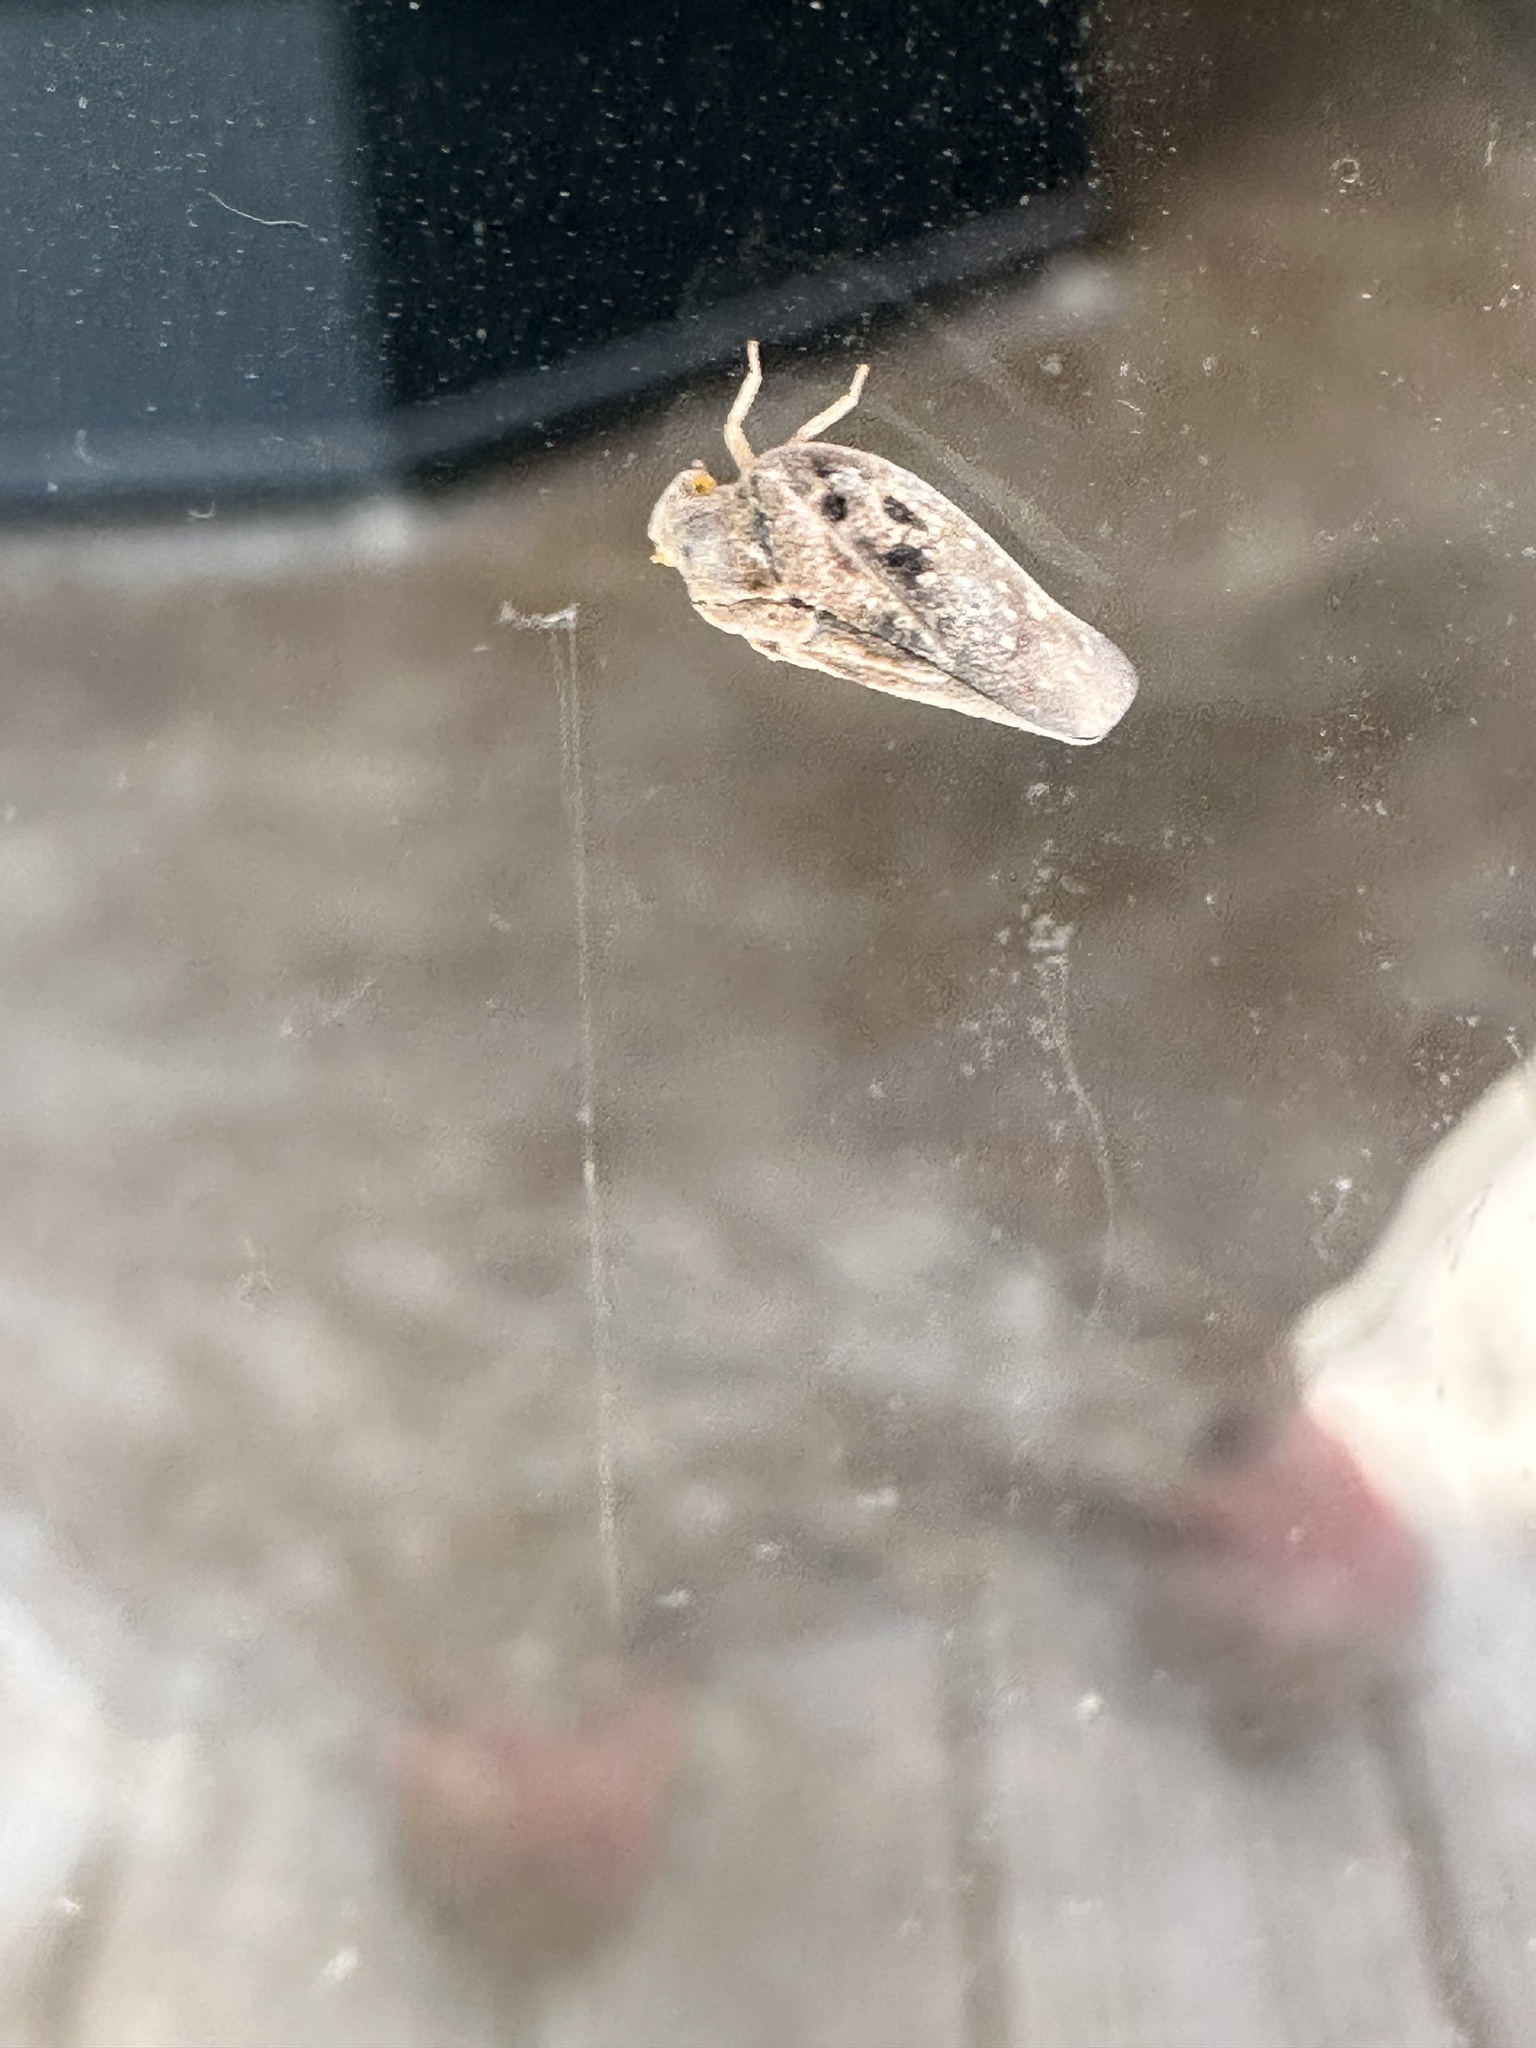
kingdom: Animalia
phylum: Arthropoda
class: Insecta
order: Hemiptera
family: Flatidae
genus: Metcalfa
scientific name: Metcalfa pruinosa
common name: Citrus flatid planthopper
